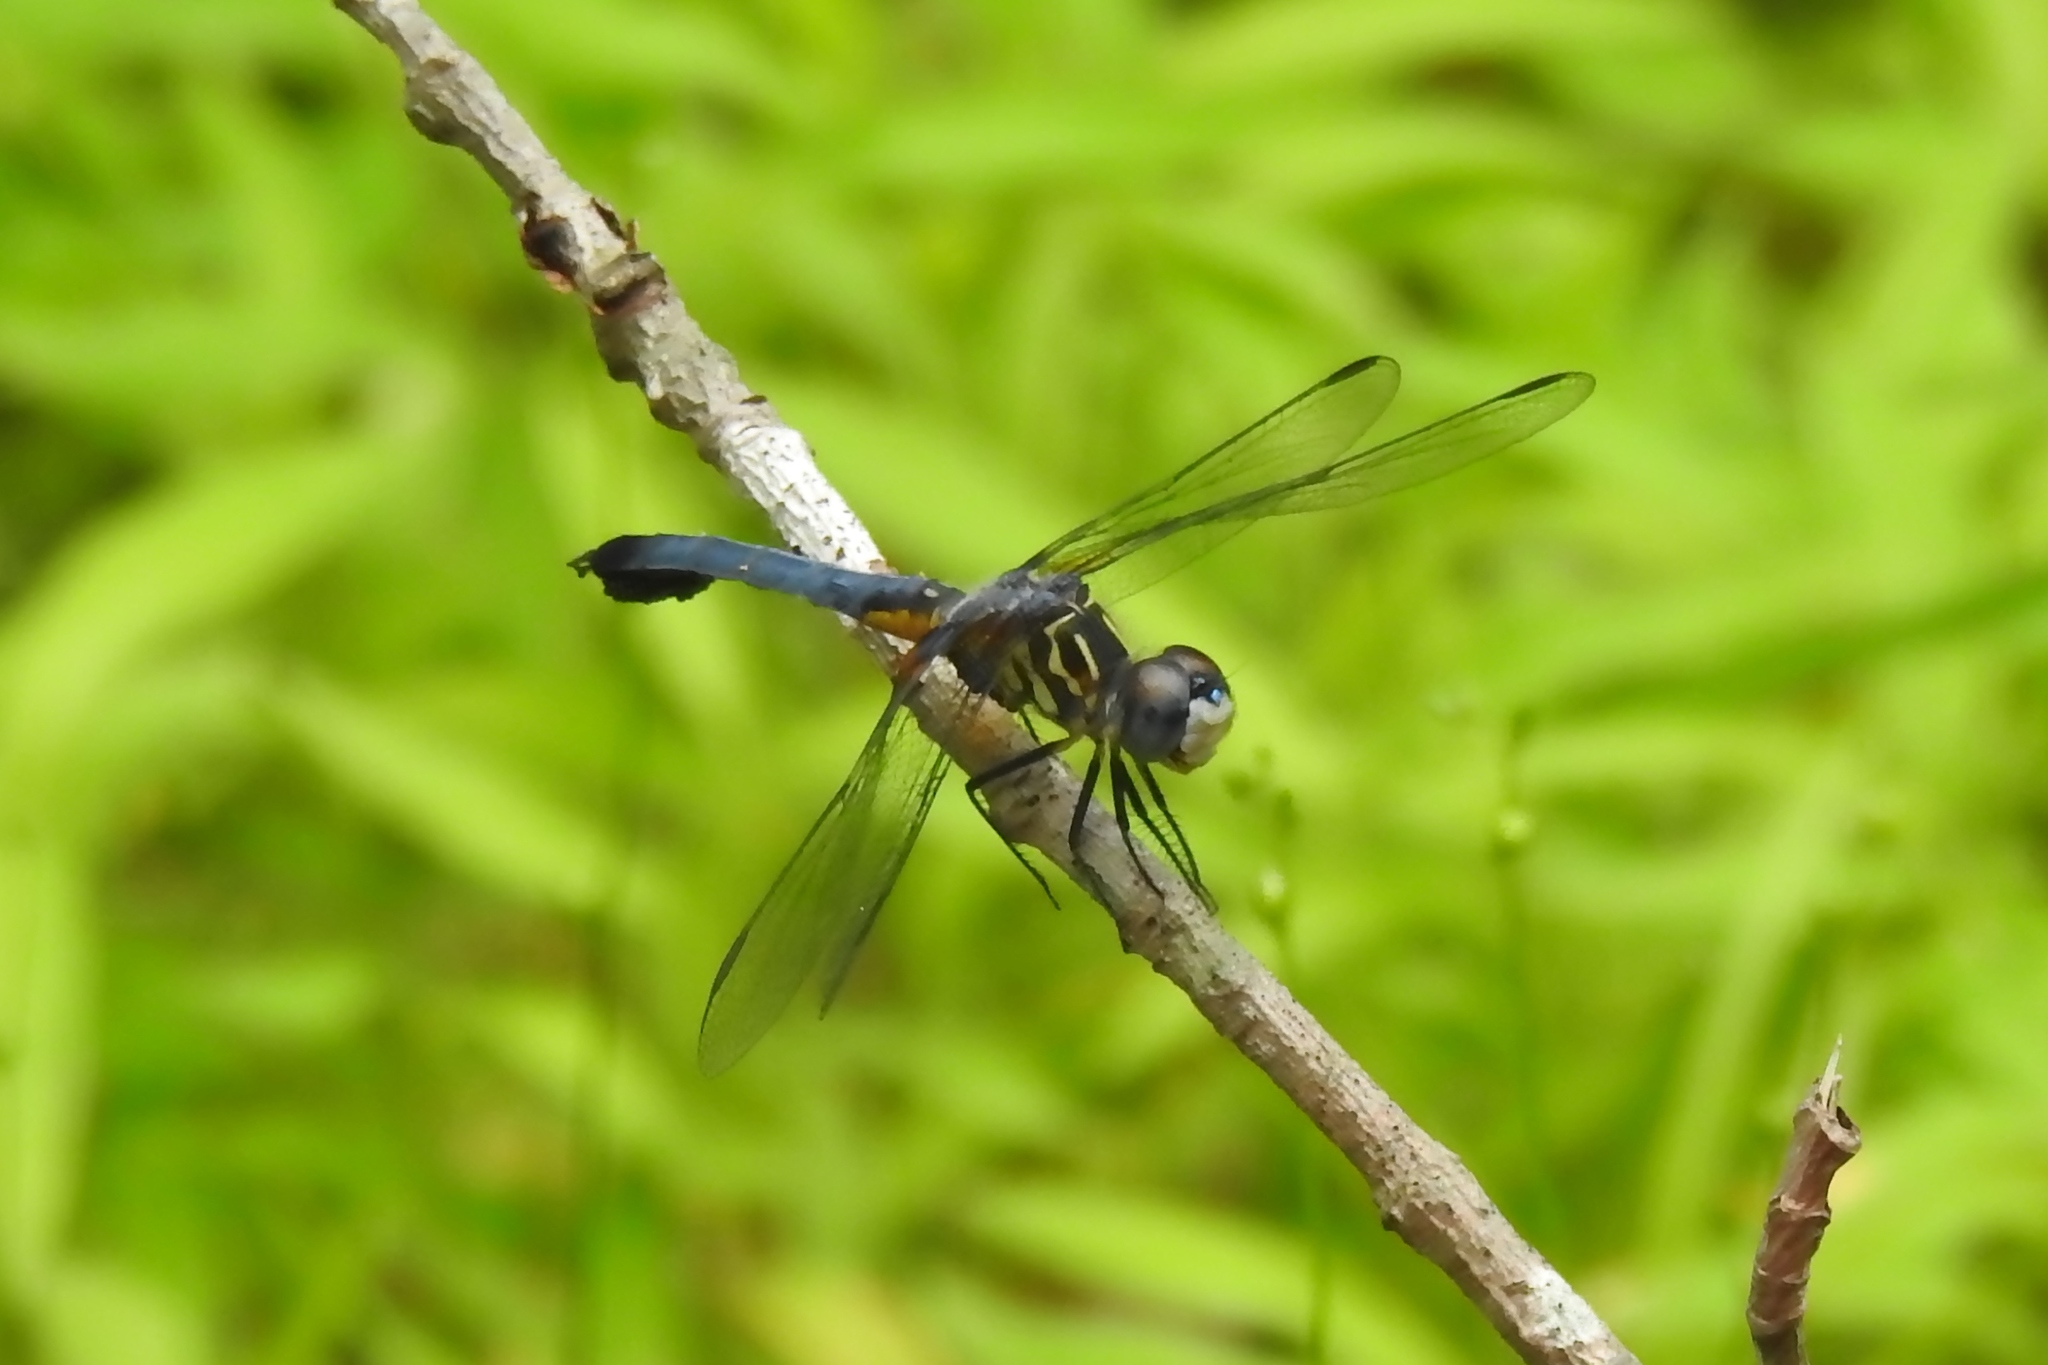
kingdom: Animalia
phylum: Arthropoda
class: Insecta
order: Odonata
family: Libellulidae
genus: Pachydiplax
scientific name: Pachydiplax longipennis
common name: Blue dasher
